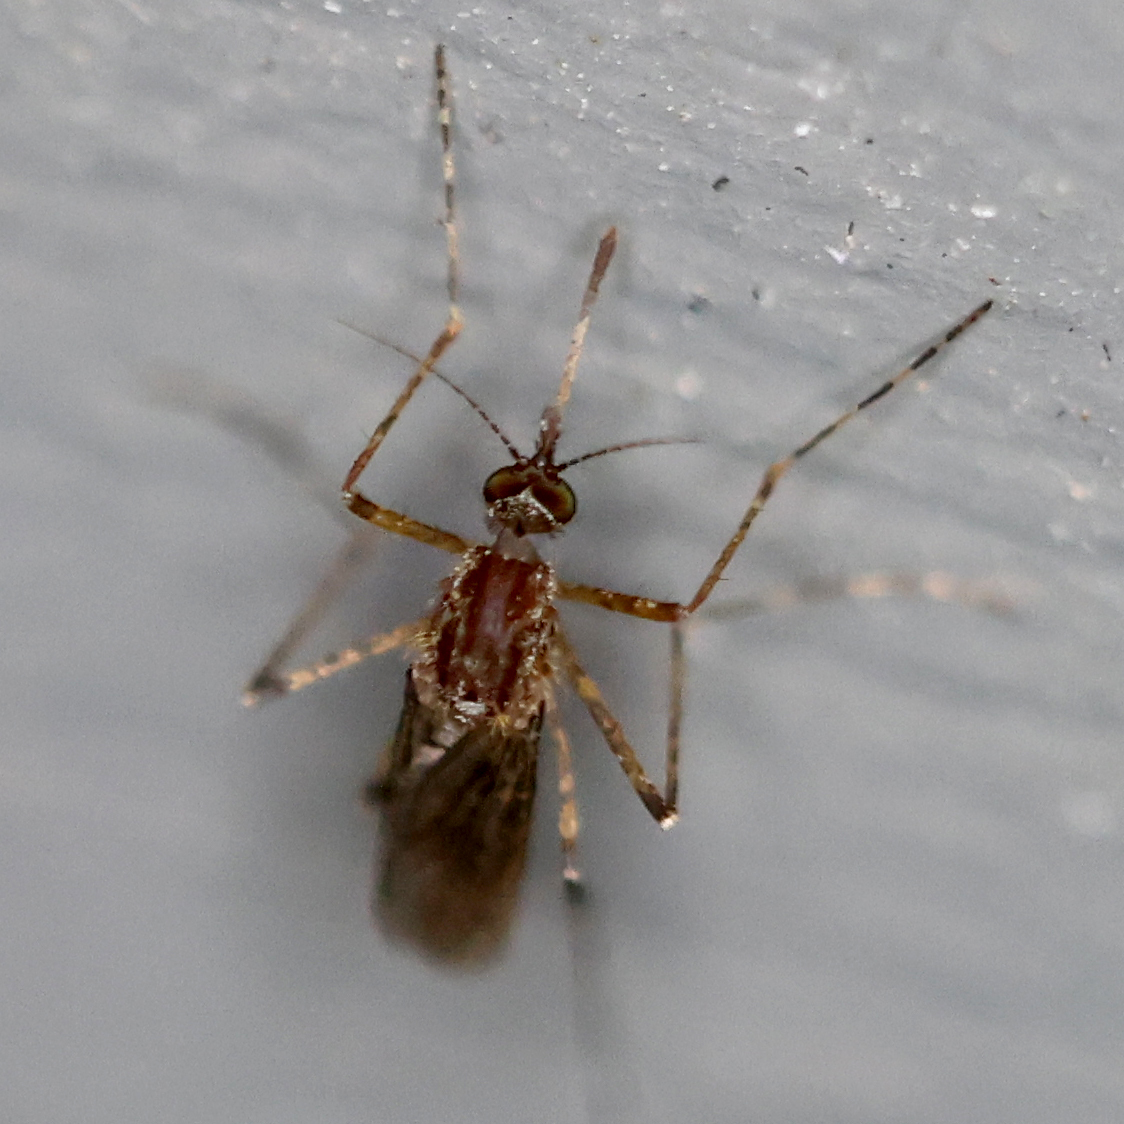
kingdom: Animalia
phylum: Arthropoda
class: Insecta
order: Diptera
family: Culicidae
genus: Coquillettidia
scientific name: Coquillettidia perturbans
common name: Cattail mosquito
